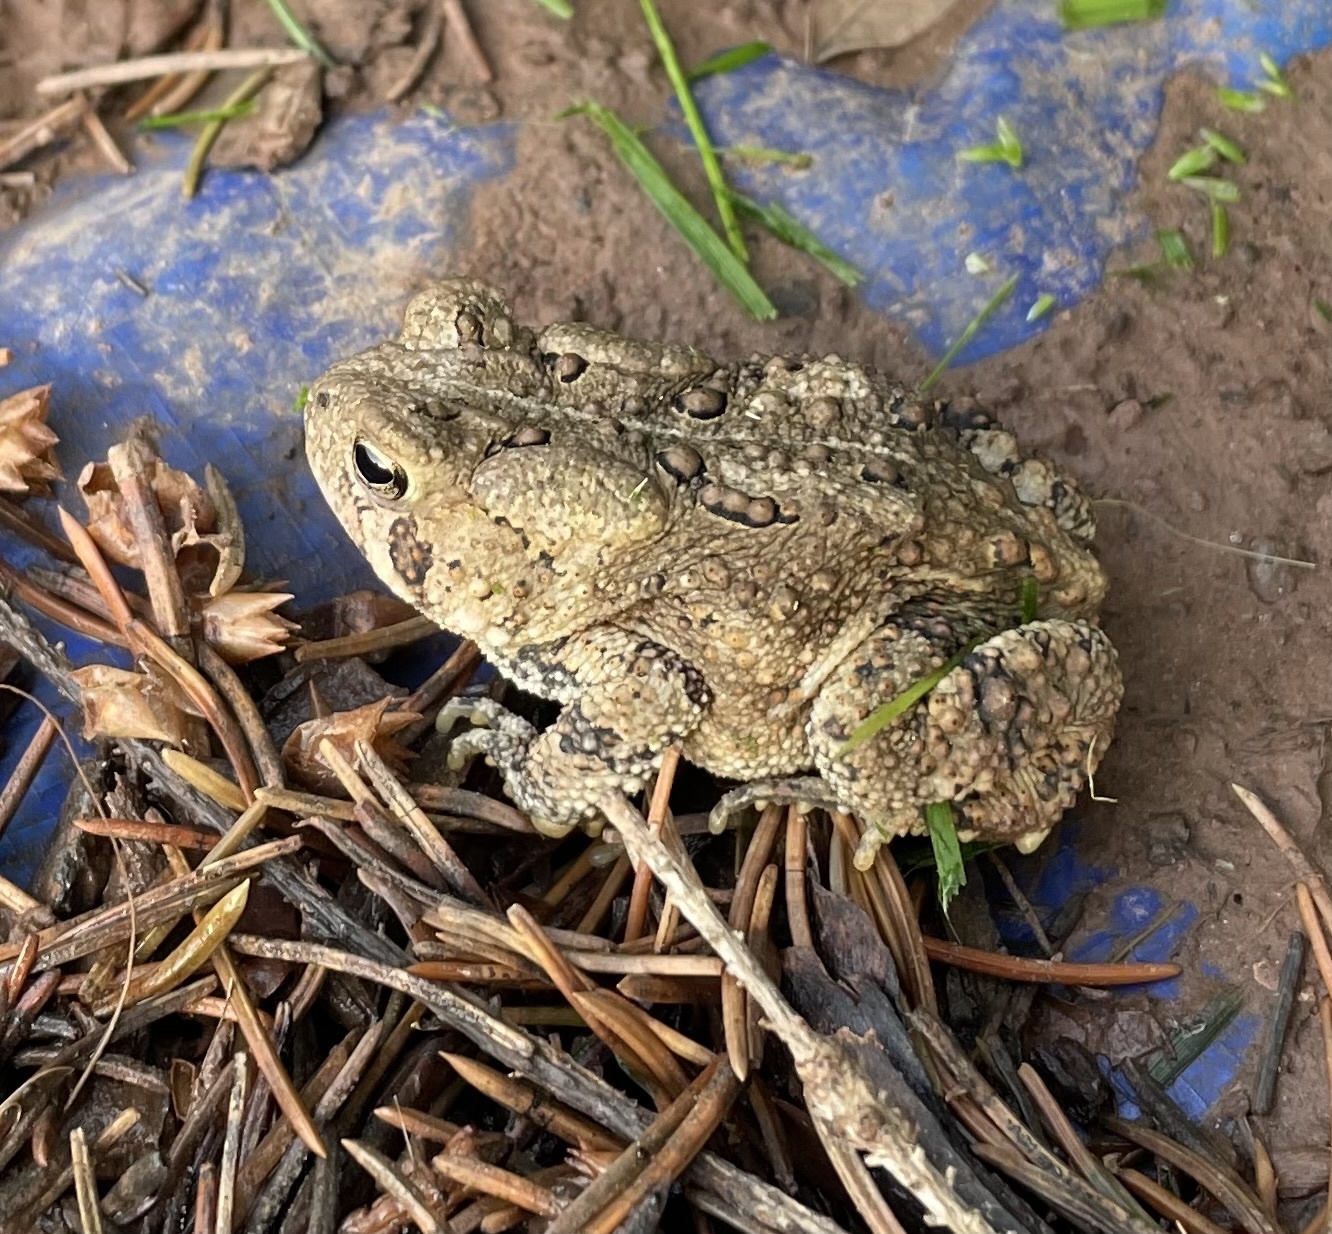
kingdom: Animalia
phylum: Chordata
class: Amphibia
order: Anura
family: Bufonidae
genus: Anaxyrus
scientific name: Anaxyrus americanus
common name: American toad
